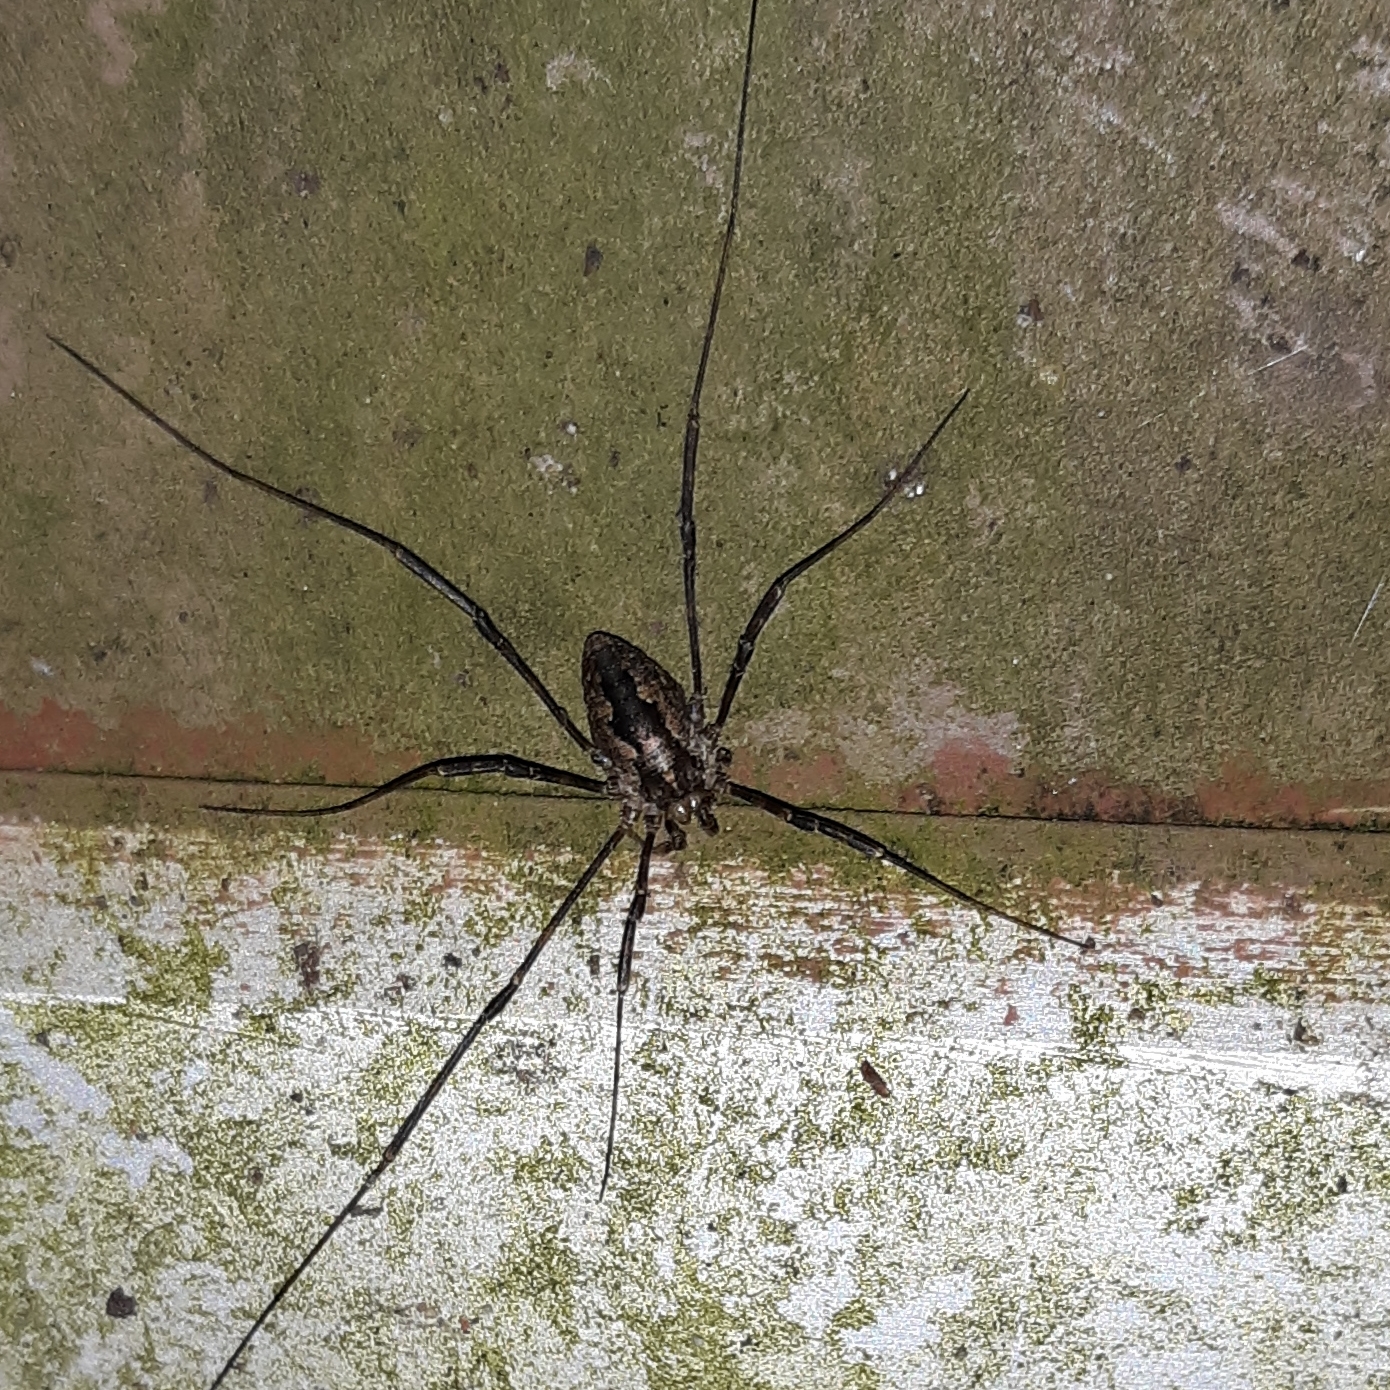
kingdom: Animalia
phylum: Arthropoda
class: Arachnida
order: Opiliones
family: Phalangiidae
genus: Odiellus
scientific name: Odiellus pictus
